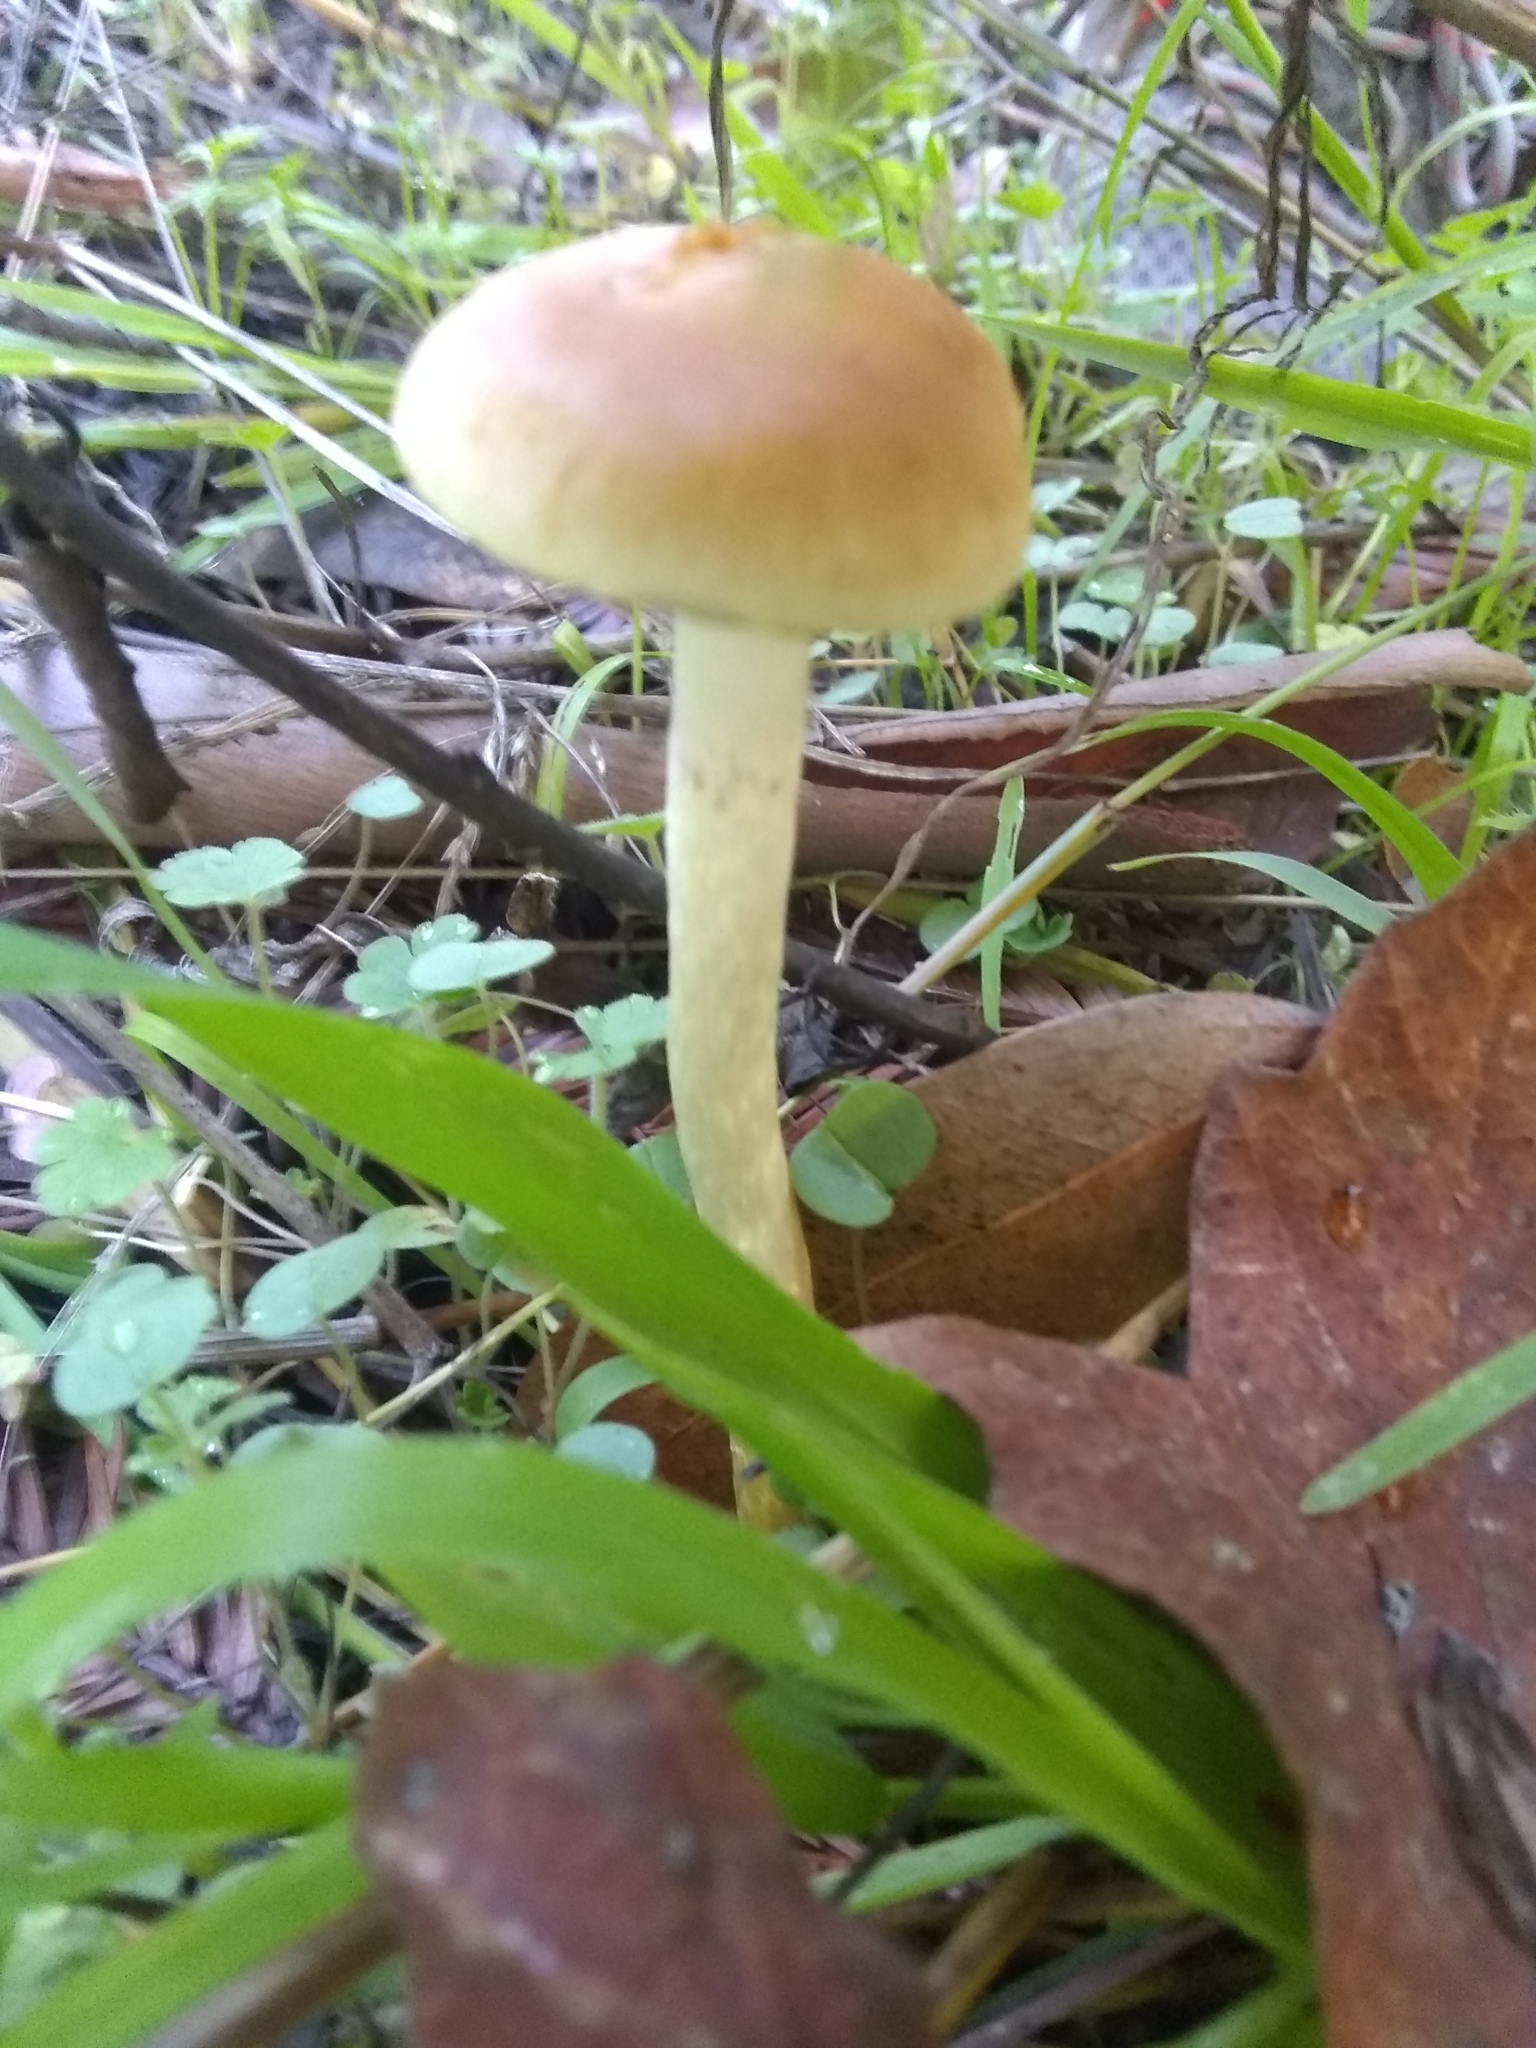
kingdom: Fungi
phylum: Basidiomycota
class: Agaricomycetes
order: Agaricales
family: Strophariaceae
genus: Leratiomyces
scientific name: Leratiomyces percevalii
